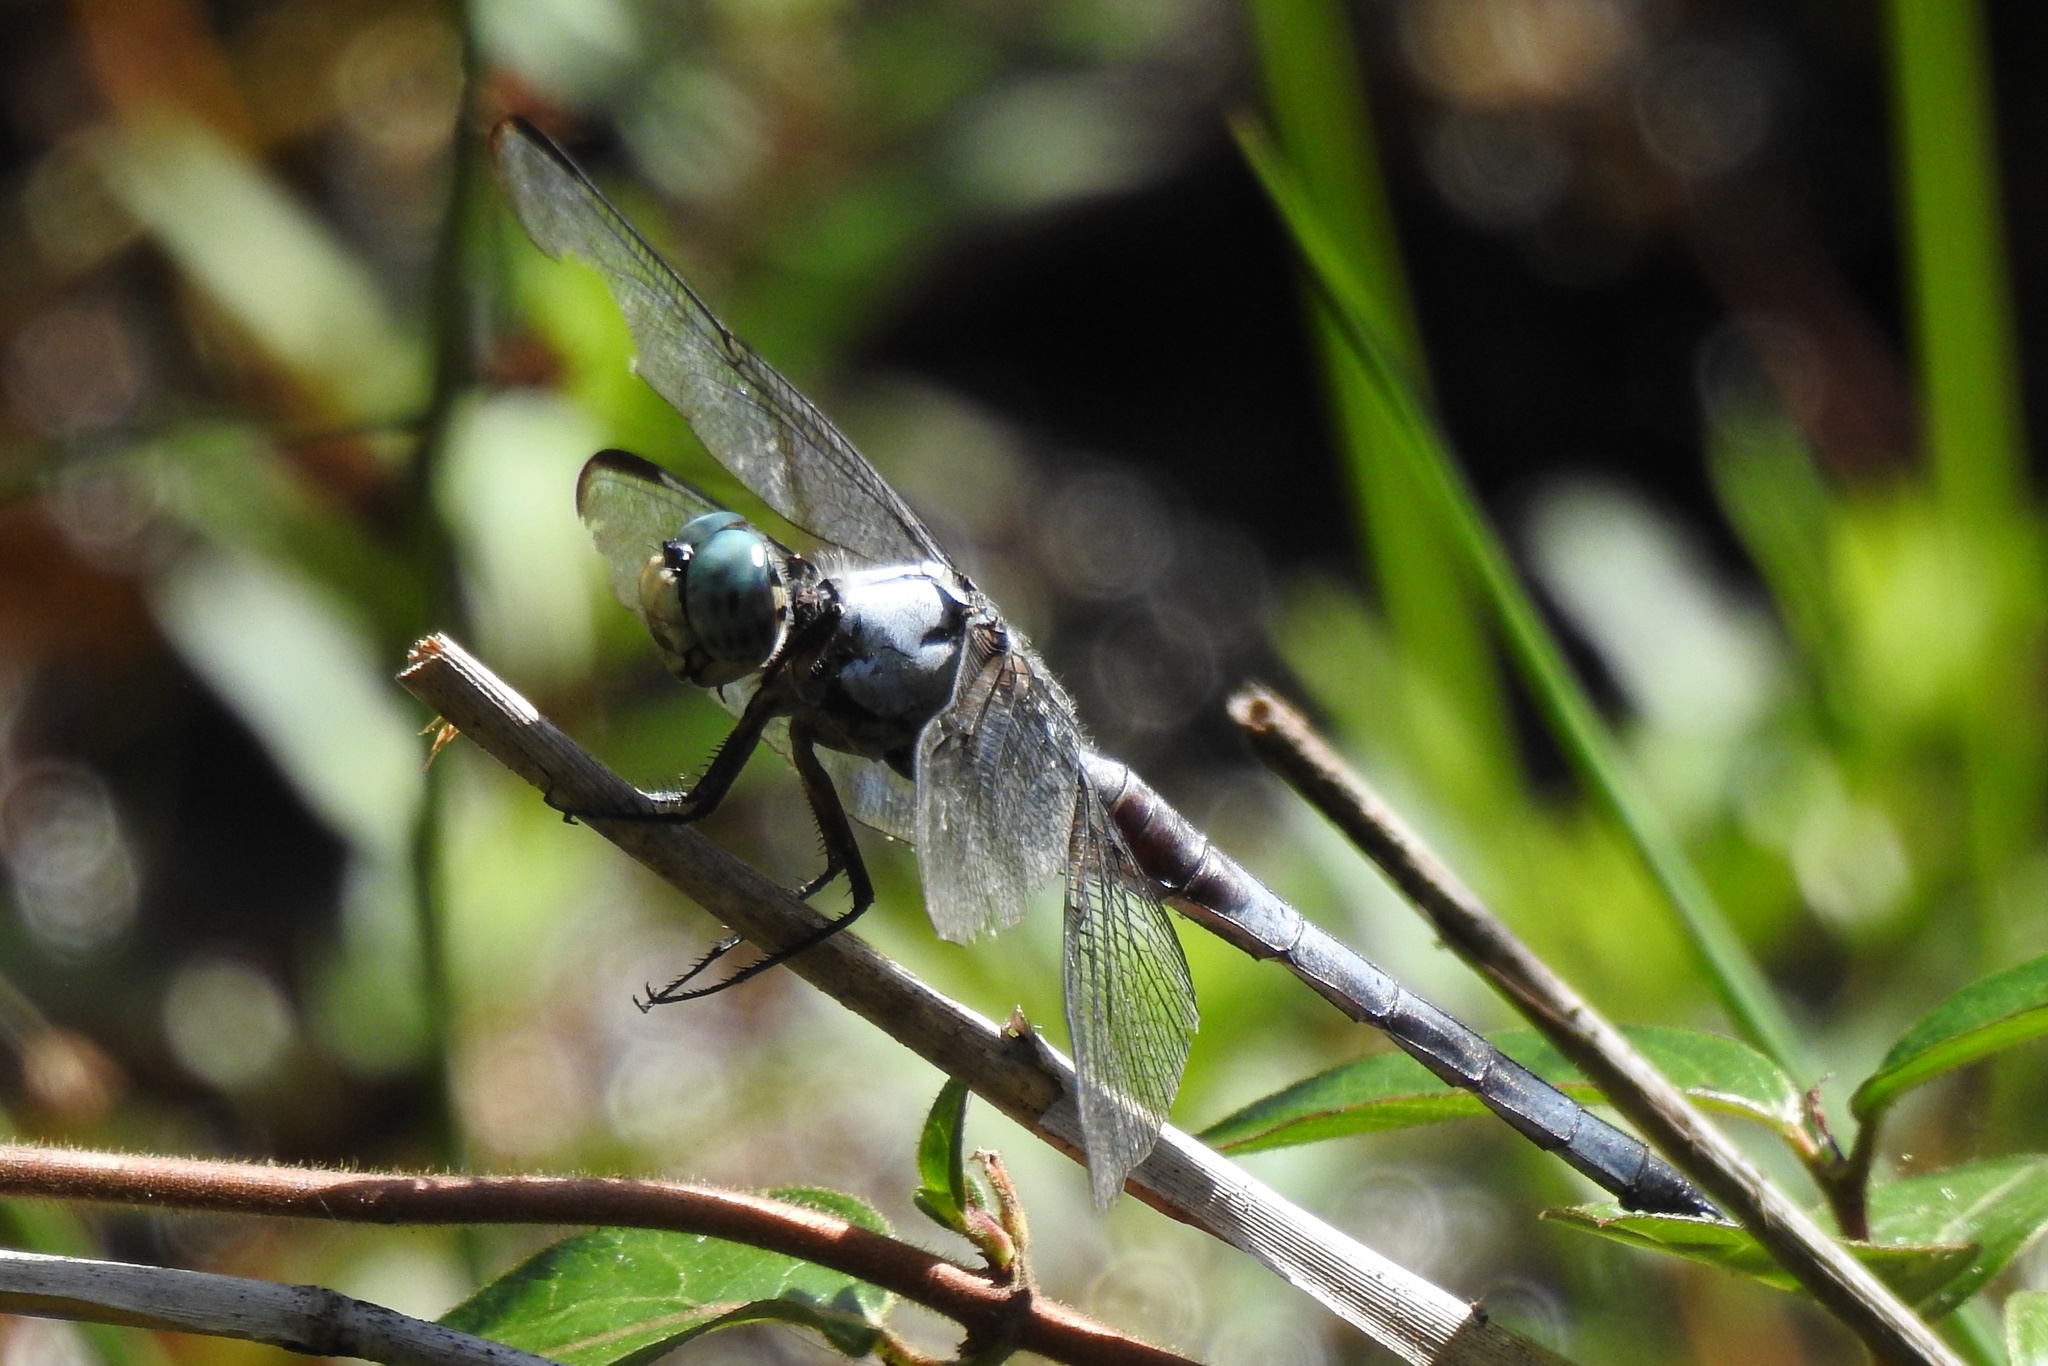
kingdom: Animalia
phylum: Arthropoda
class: Insecta
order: Odonata
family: Libellulidae
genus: Libellula
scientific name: Libellula vibrans
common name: Great blue skimmer
